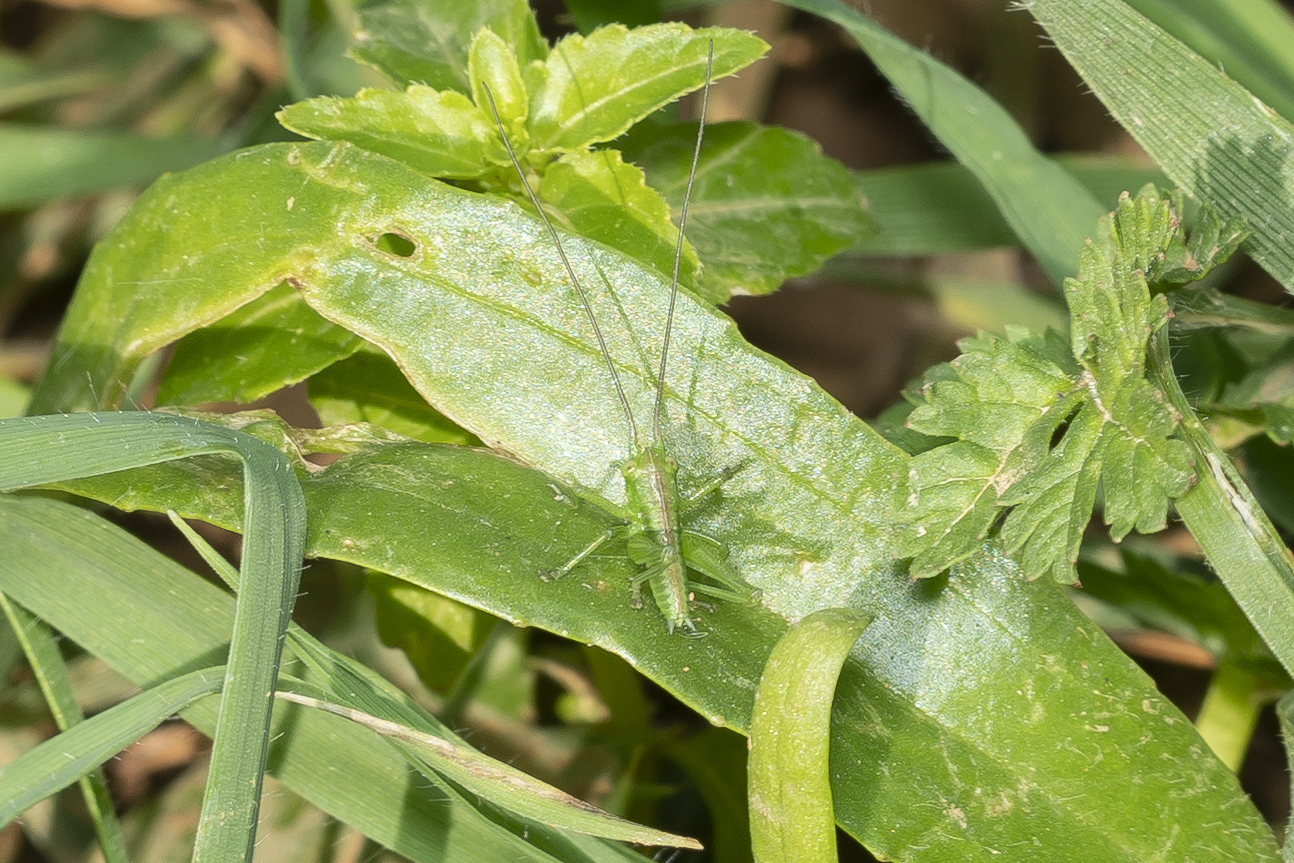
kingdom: Animalia
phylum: Arthropoda
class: Insecta
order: Orthoptera
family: Tettigoniidae
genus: Tettigonia
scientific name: Tettigonia viridissima
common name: Great green bush-cricket
